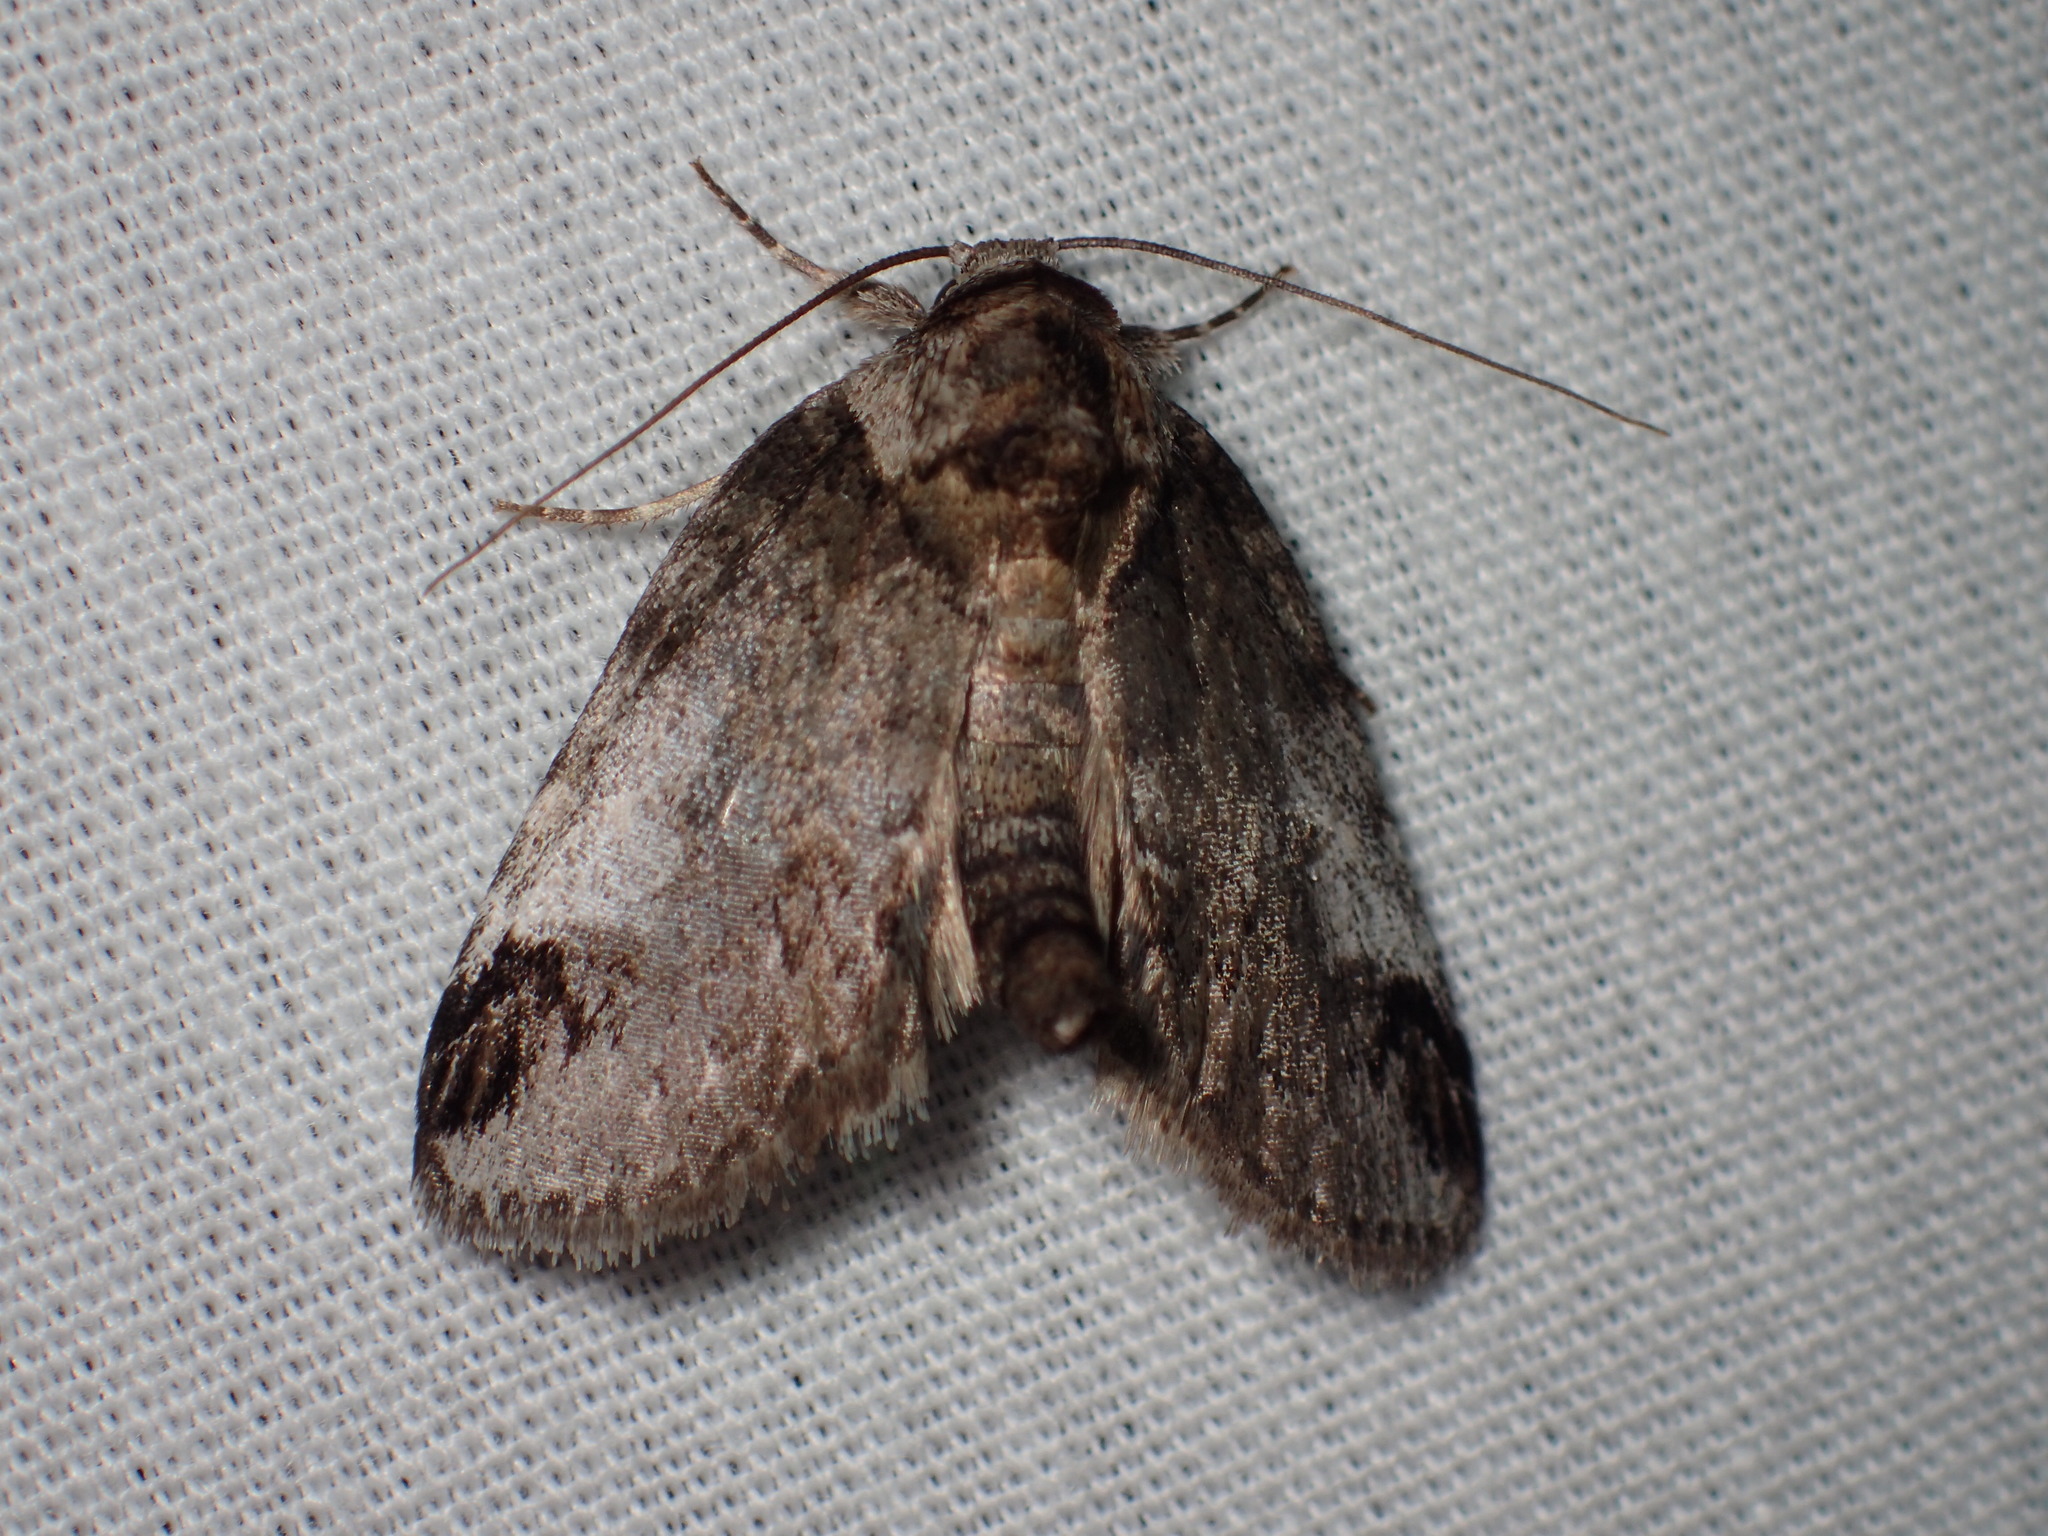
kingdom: Animalia
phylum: Arthropoda
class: Insecta
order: Lepidoptera
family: Nolidae
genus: Baileya
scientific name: Baileya dormitans
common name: Sleeping baileya moth
